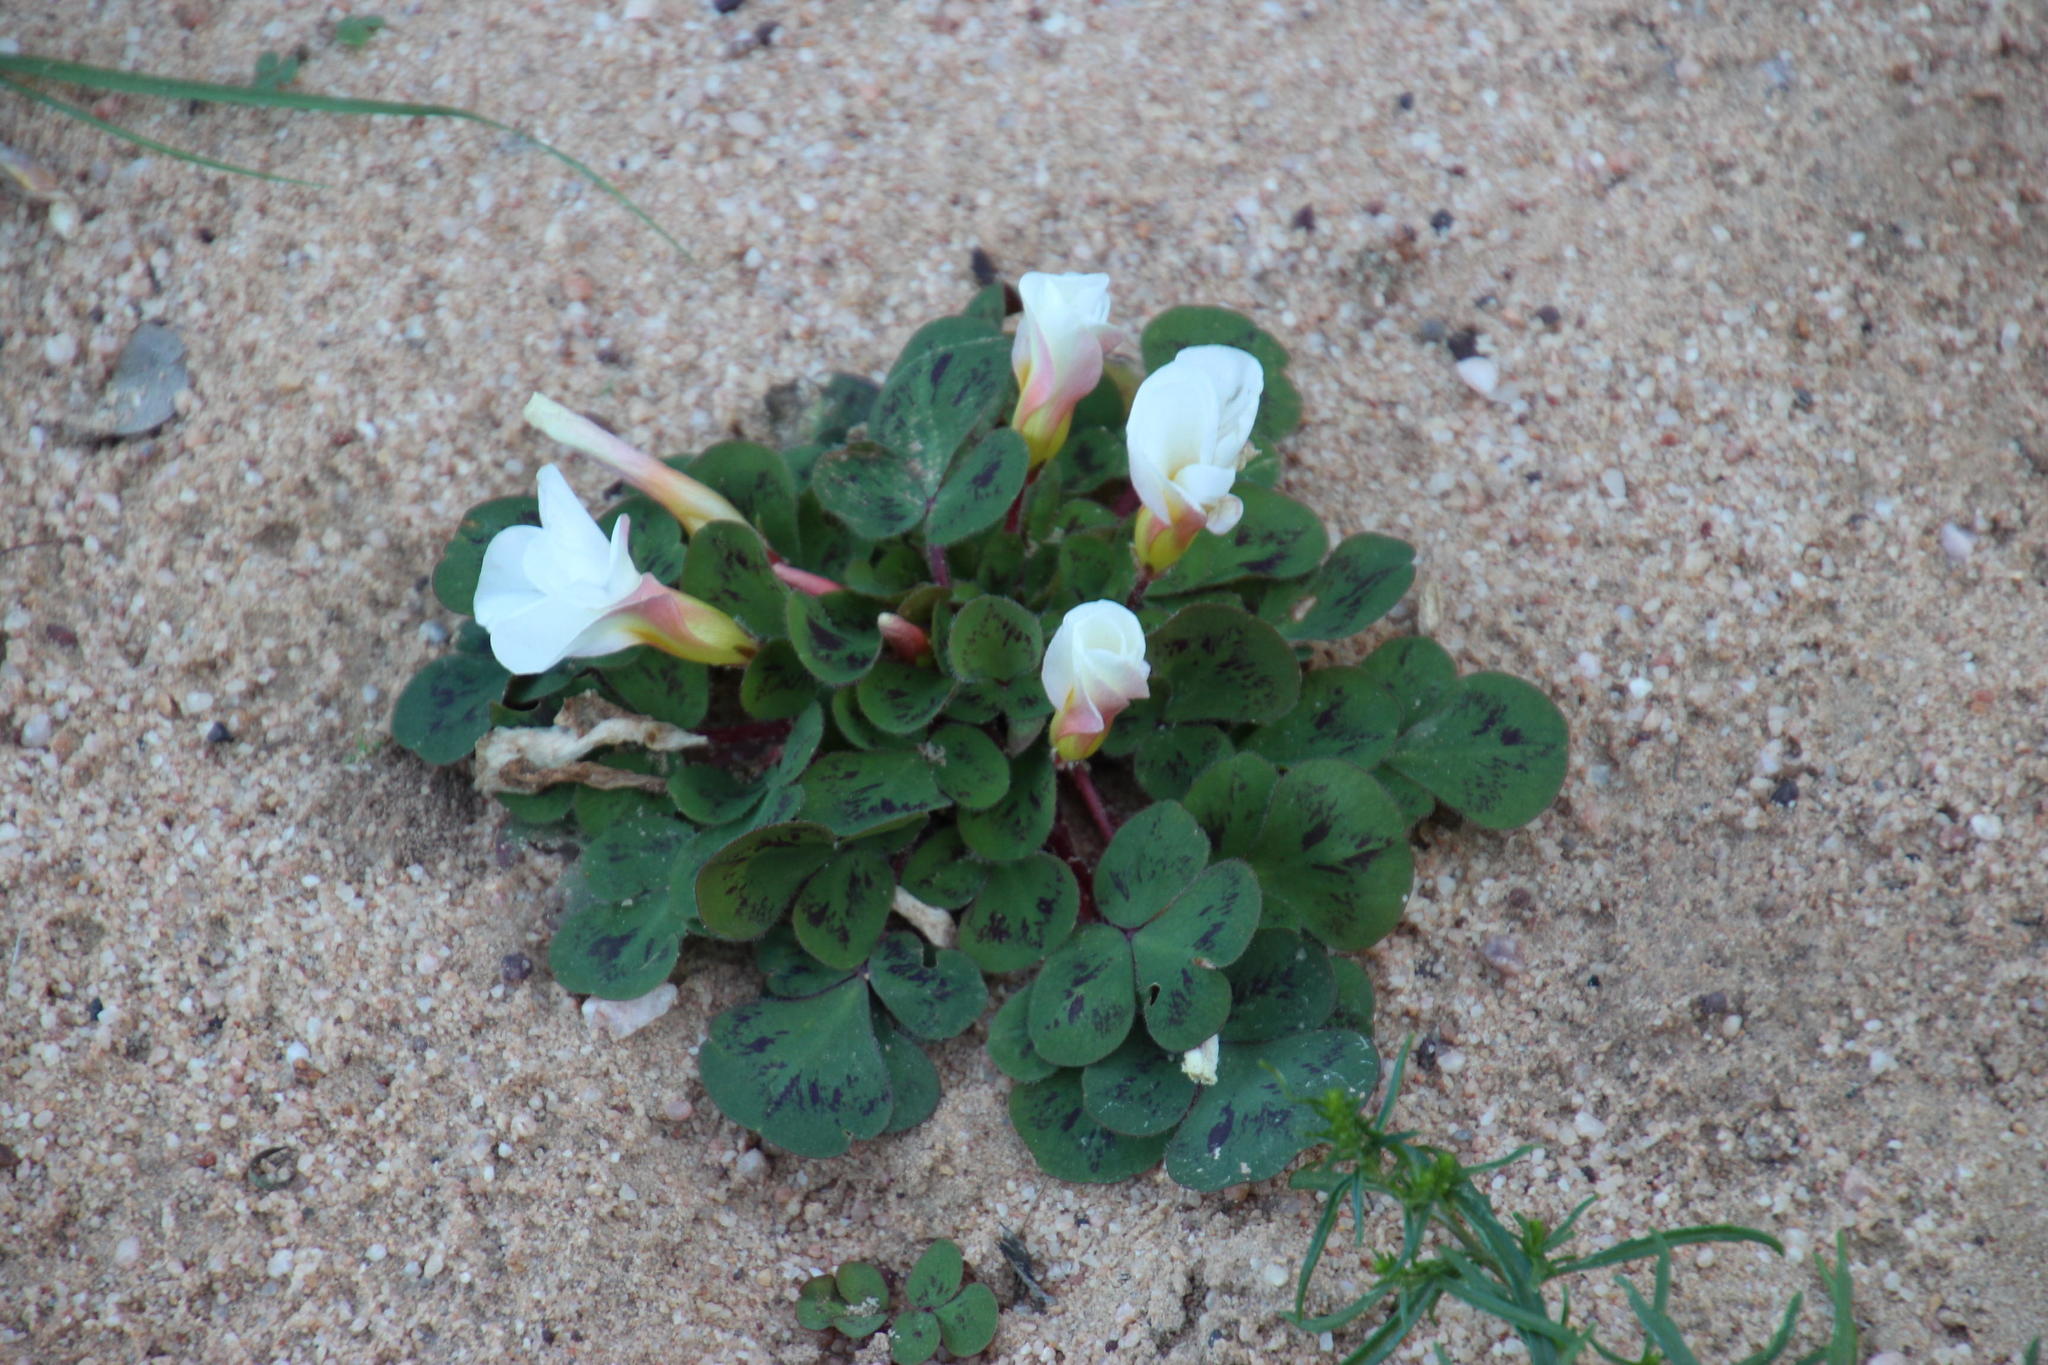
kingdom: Plantae
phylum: Tracheophyta
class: Magnoliopsida
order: Oxalidales
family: Oxalidaceae
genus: Oxalis
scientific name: Oxalis purpurea
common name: Purple woodsorrel
